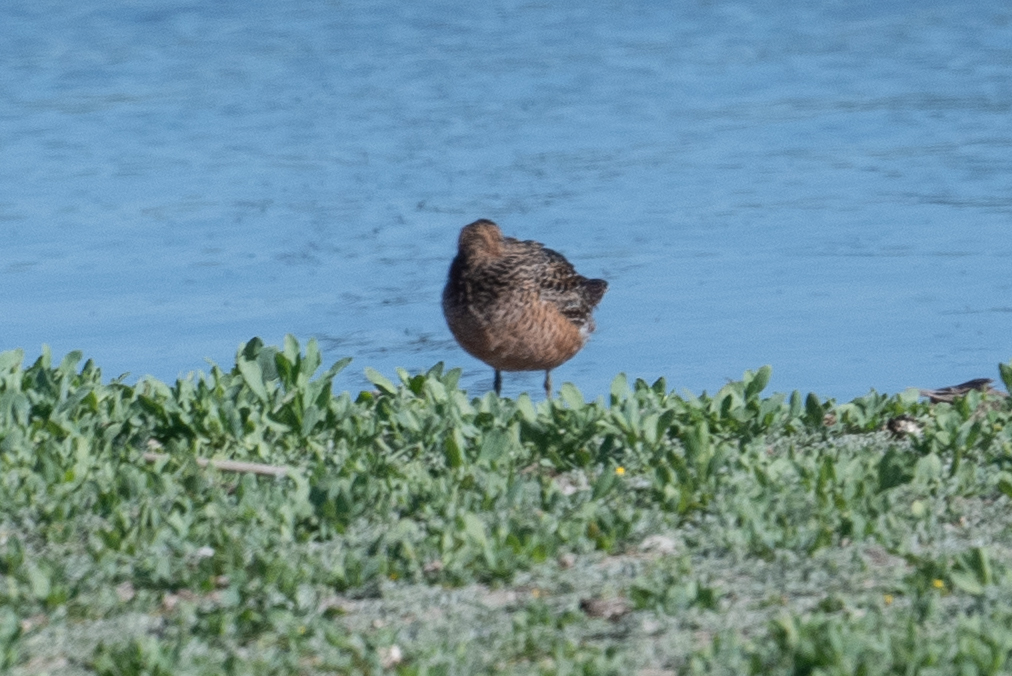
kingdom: Animalia
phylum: Chordata
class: Aves
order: Charadriiformes
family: Scolopacidae
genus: Limnodromus
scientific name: Limnodromus scolopaceus
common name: Long-billed dowitcher
